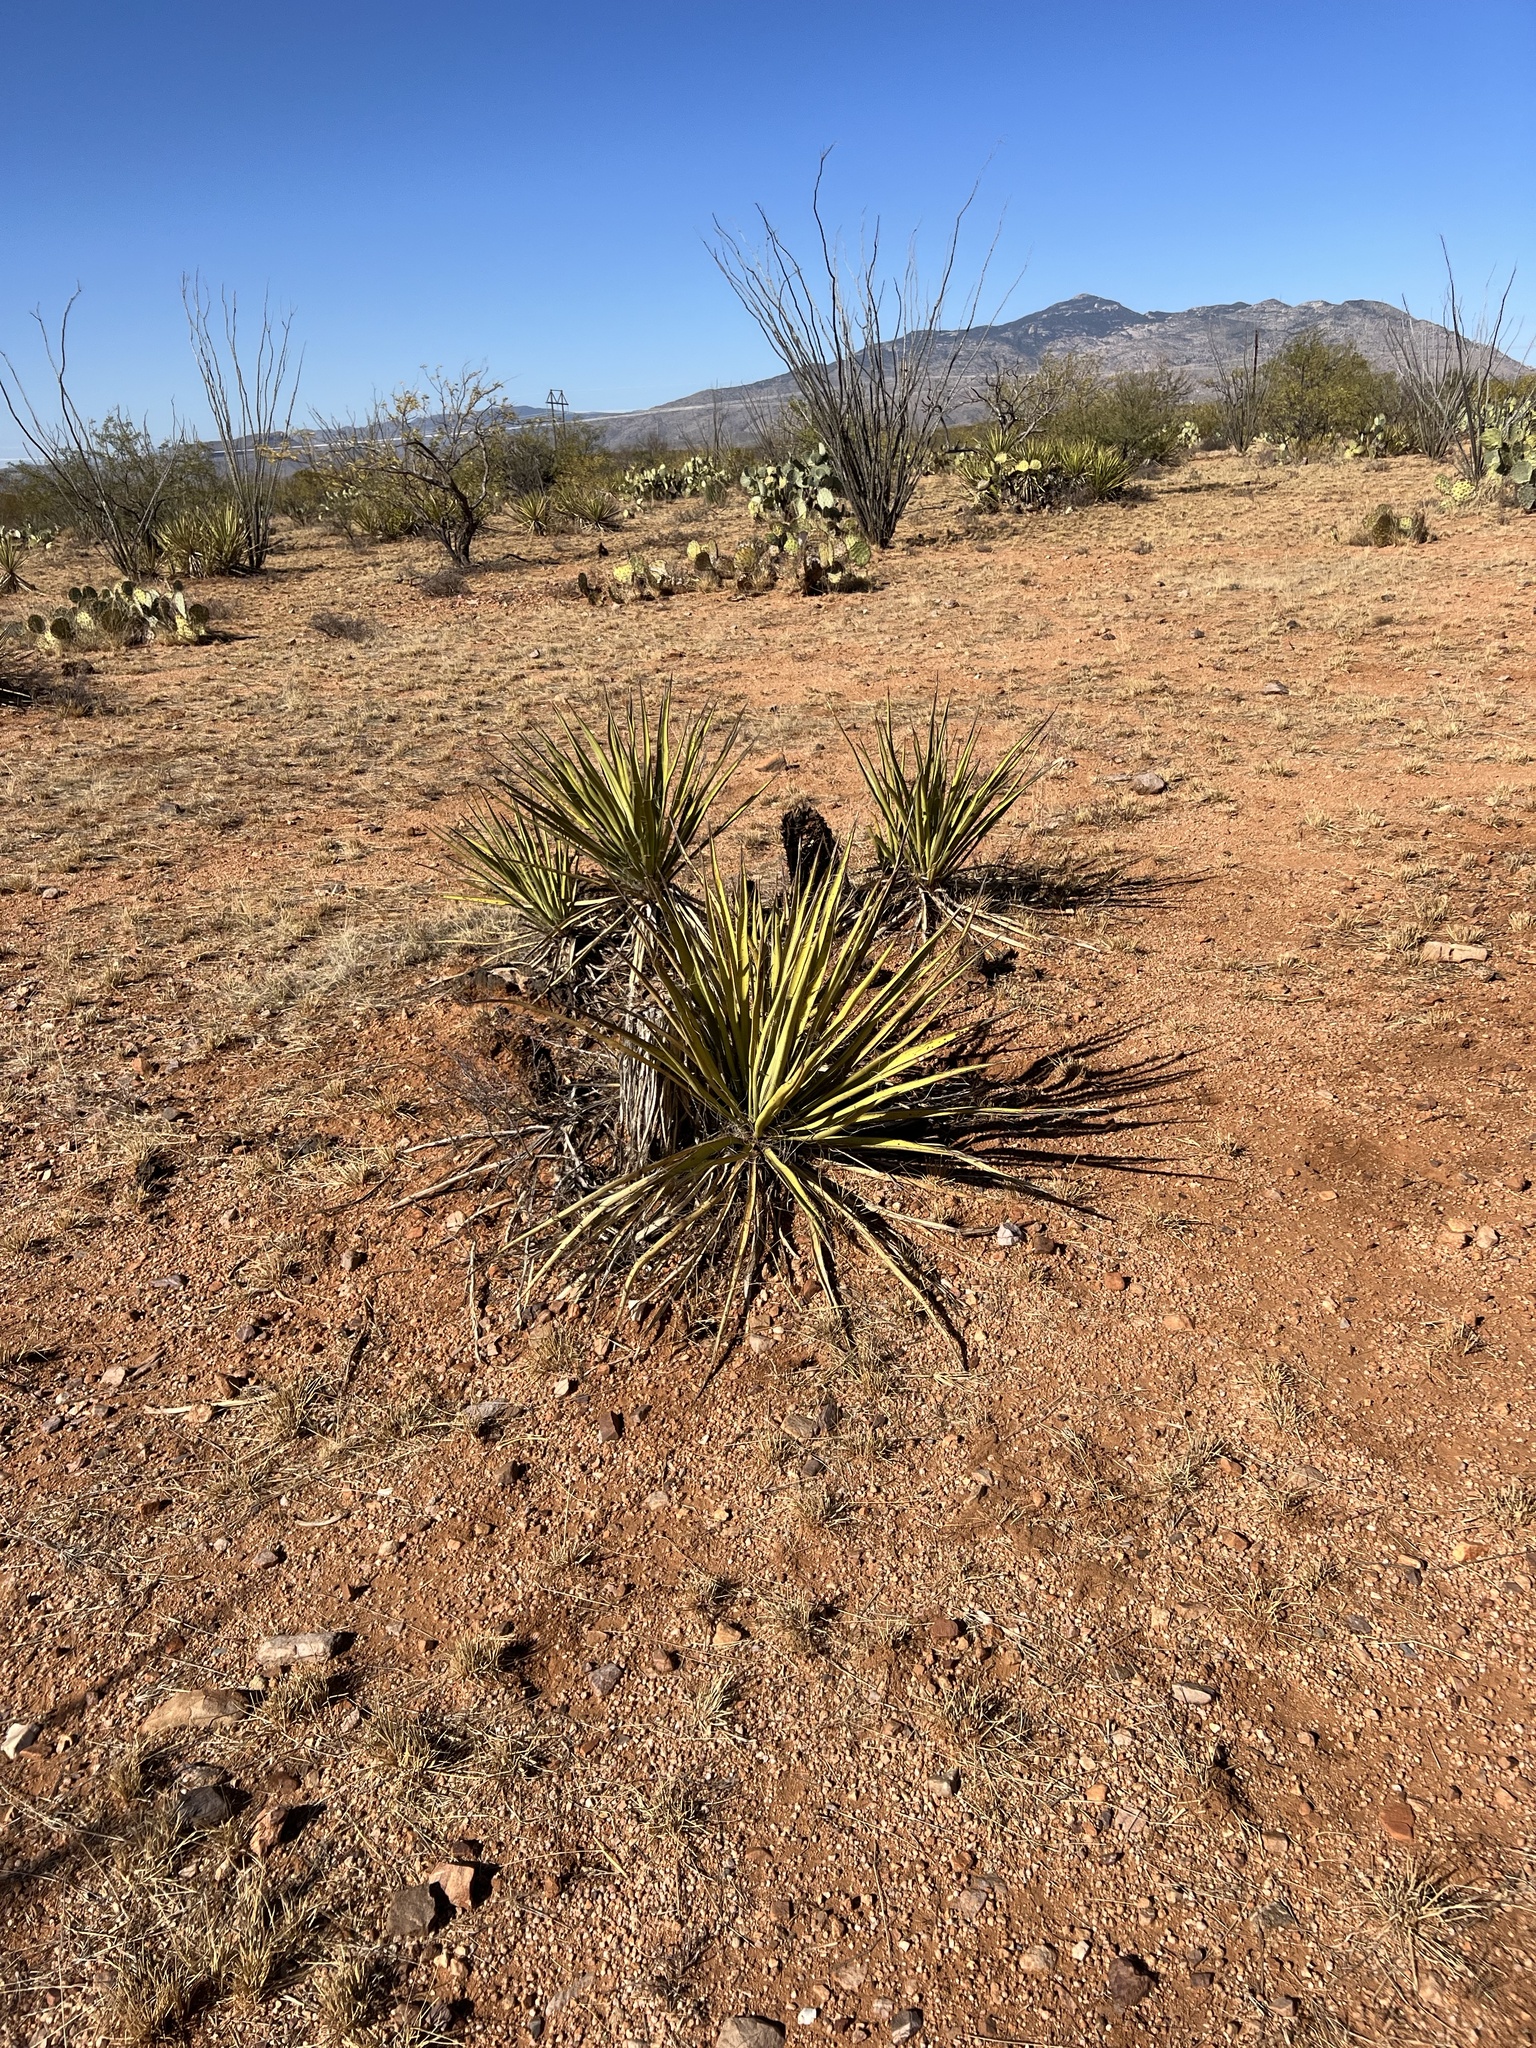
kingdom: Plantae
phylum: Tracheophyta
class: Liliopsida
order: Asparagales
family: Asparagaceae
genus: Yucca
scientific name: Yucca baccata
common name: Banana yucca
